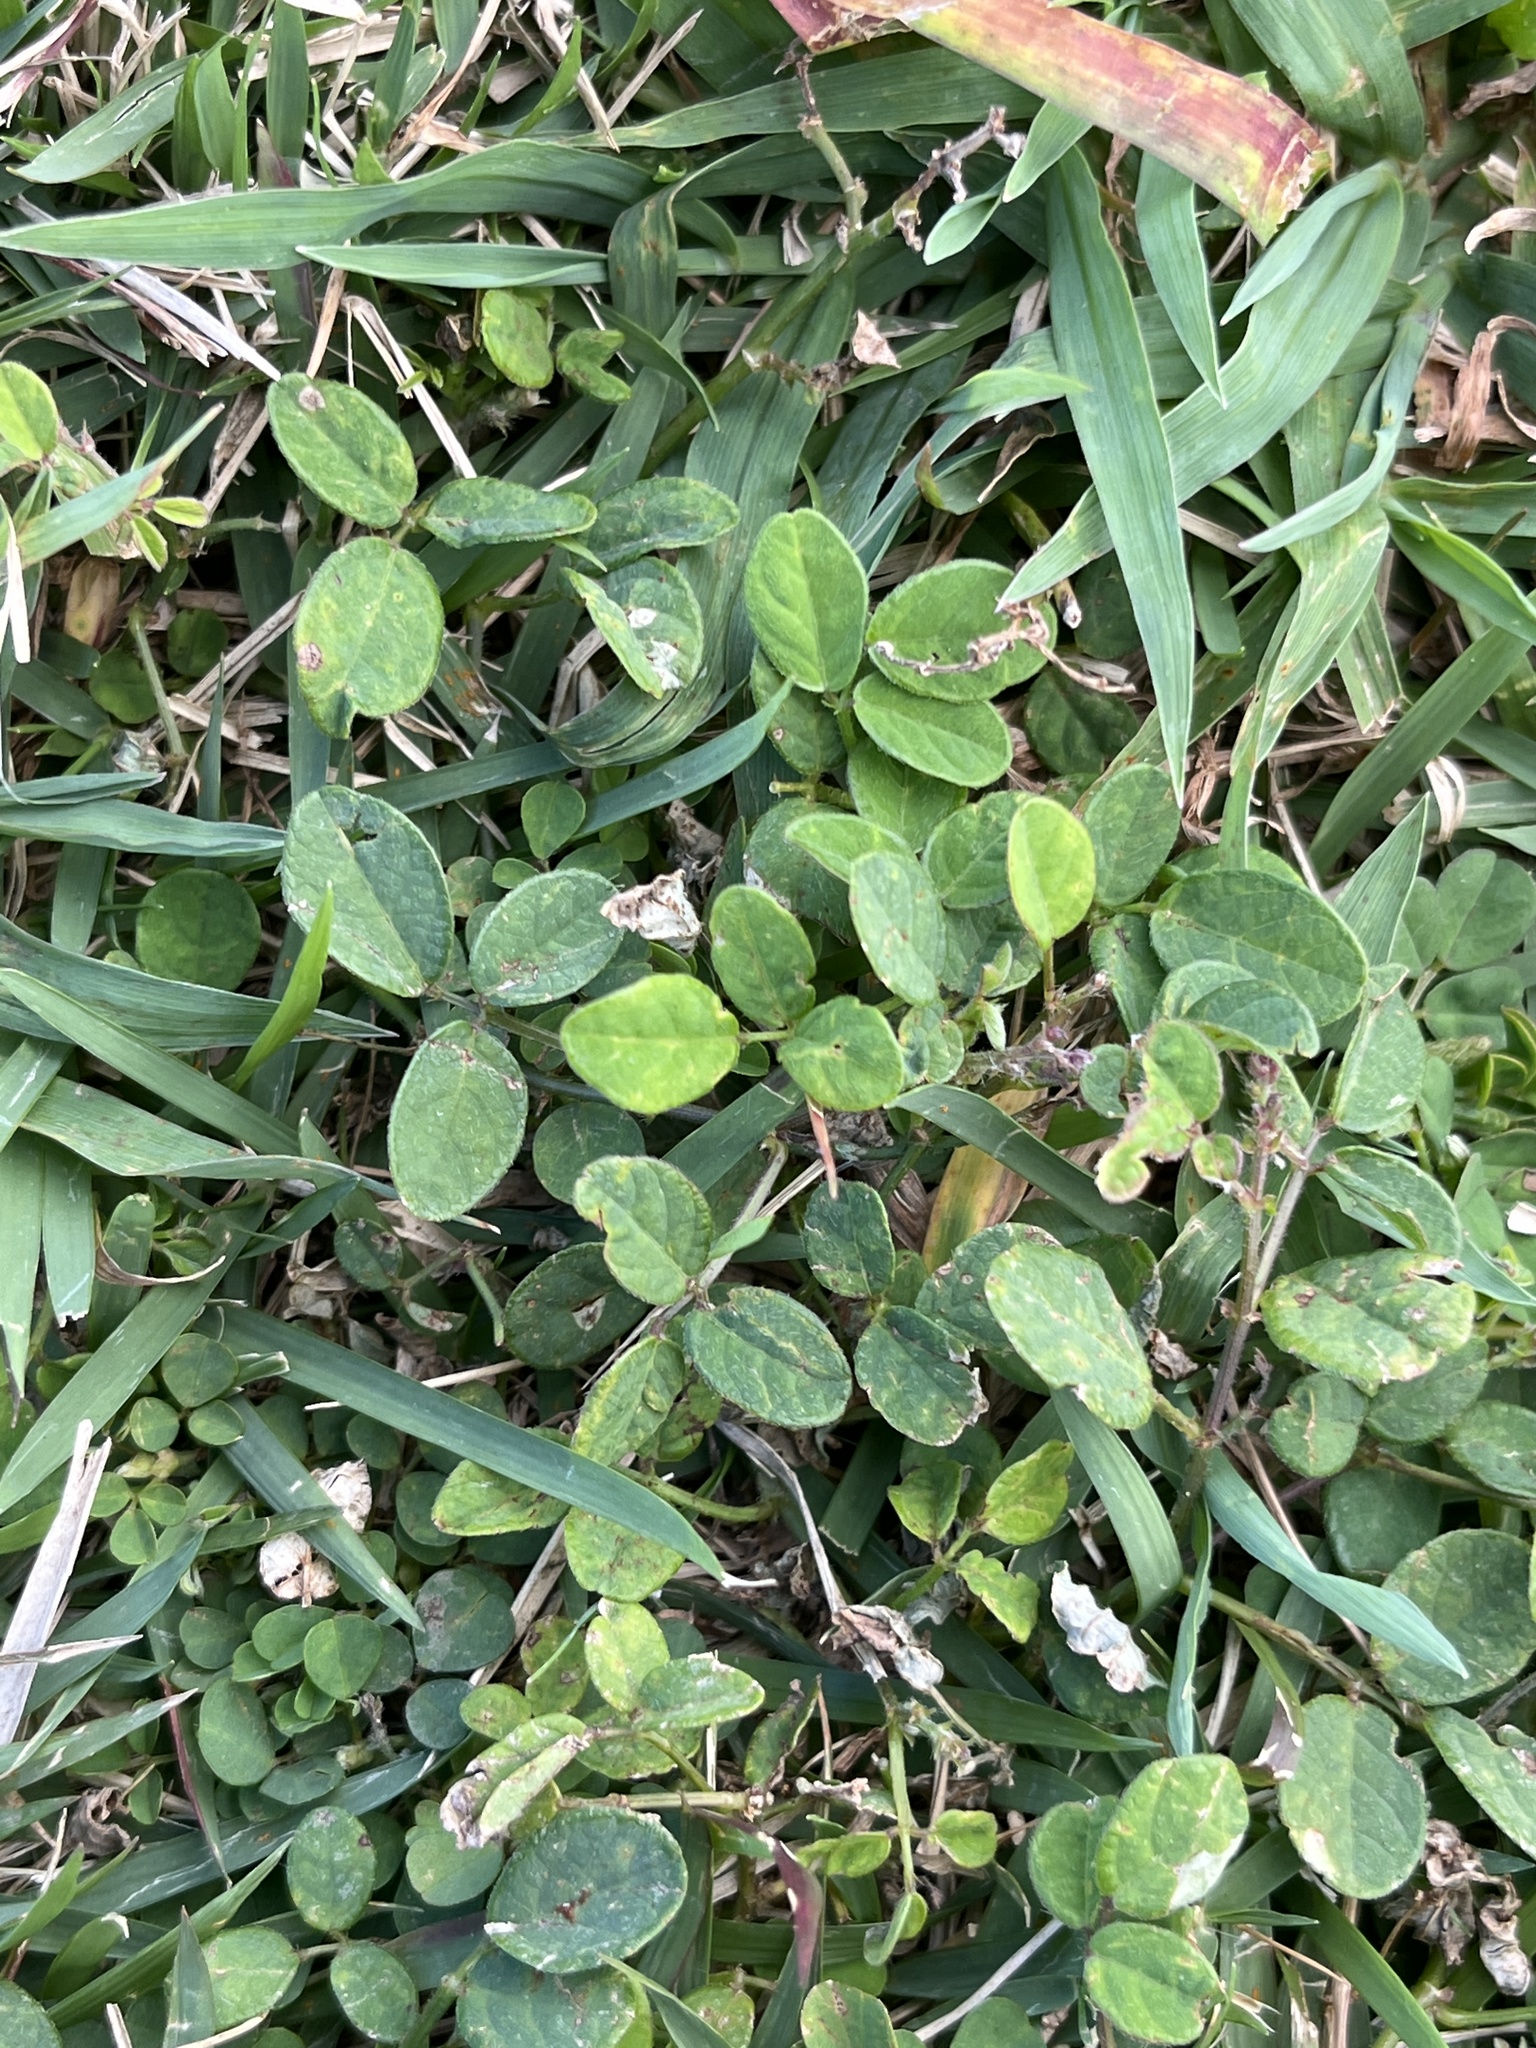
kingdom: Plantae
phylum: Tracheophyta
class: Magnoliopsida
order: Fabales
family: Fabaceae
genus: Desmodium
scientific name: Desmodium incanum
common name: Tickclover
